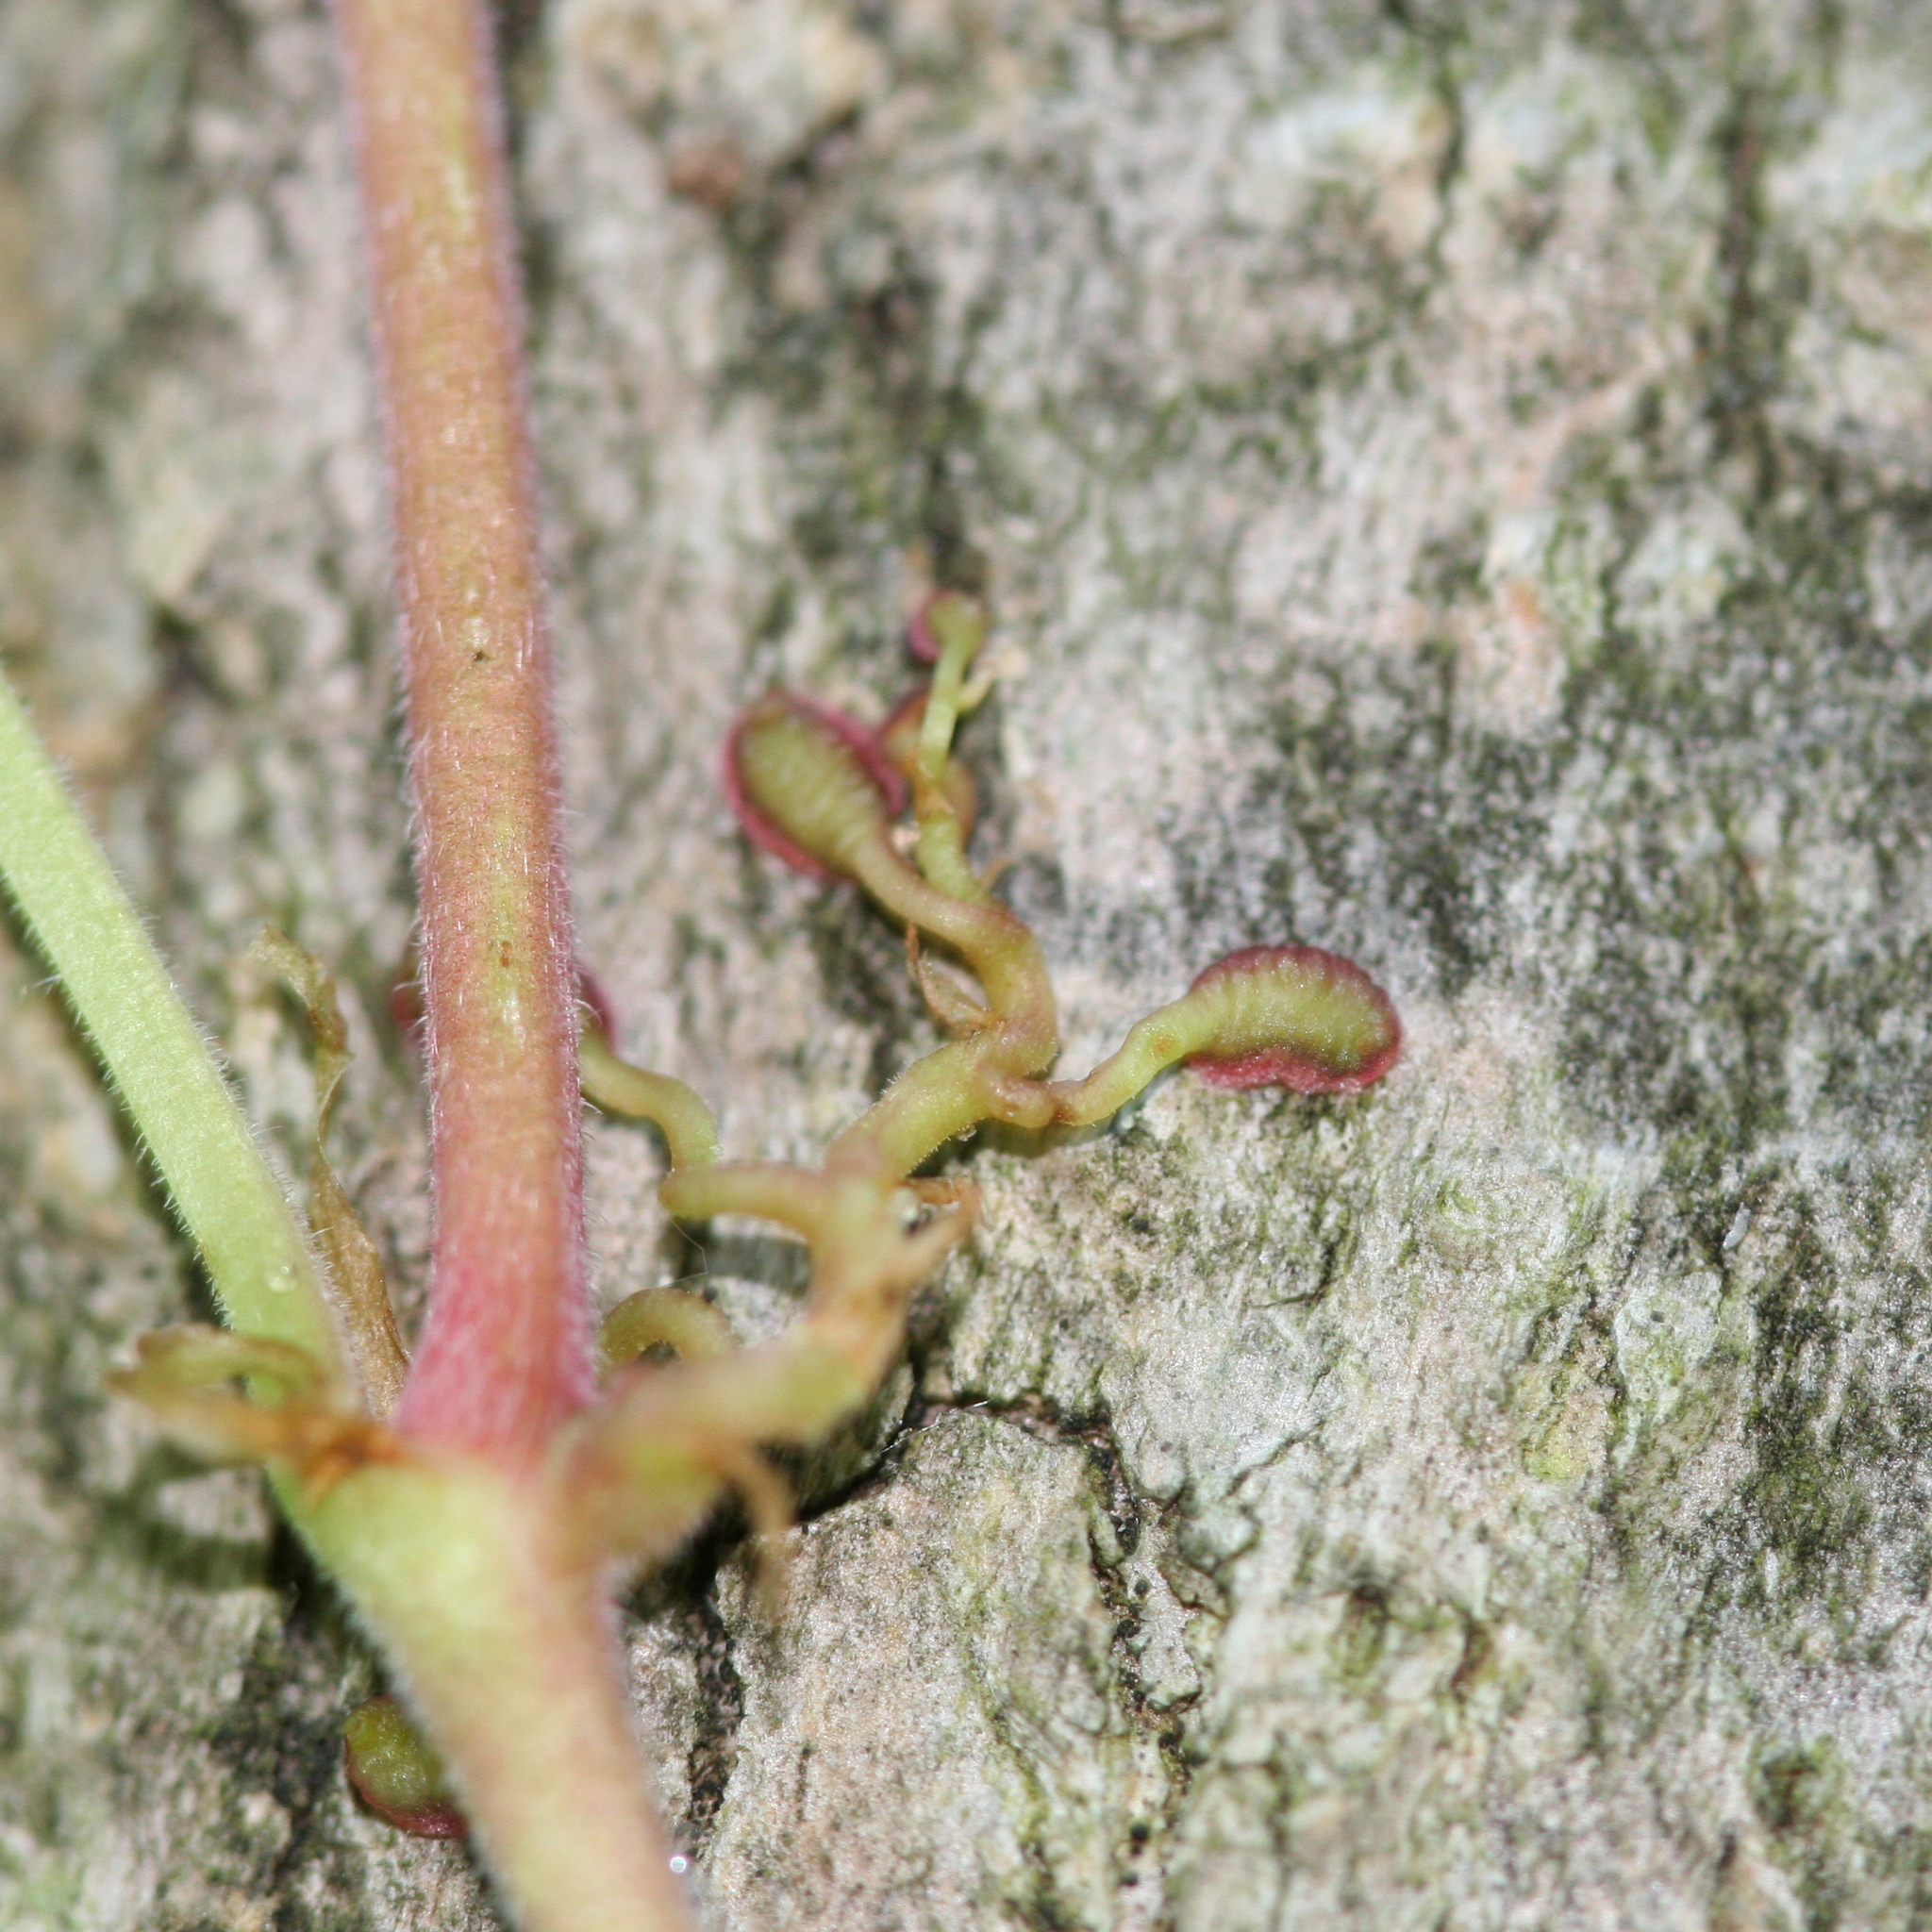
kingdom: Plantae
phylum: Tracheophyta
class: Magnoliopsida
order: Vitales
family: Vitaceae
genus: Parthenocissus
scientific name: Parthenocissus quinquefolia
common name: Virginia-creeper
